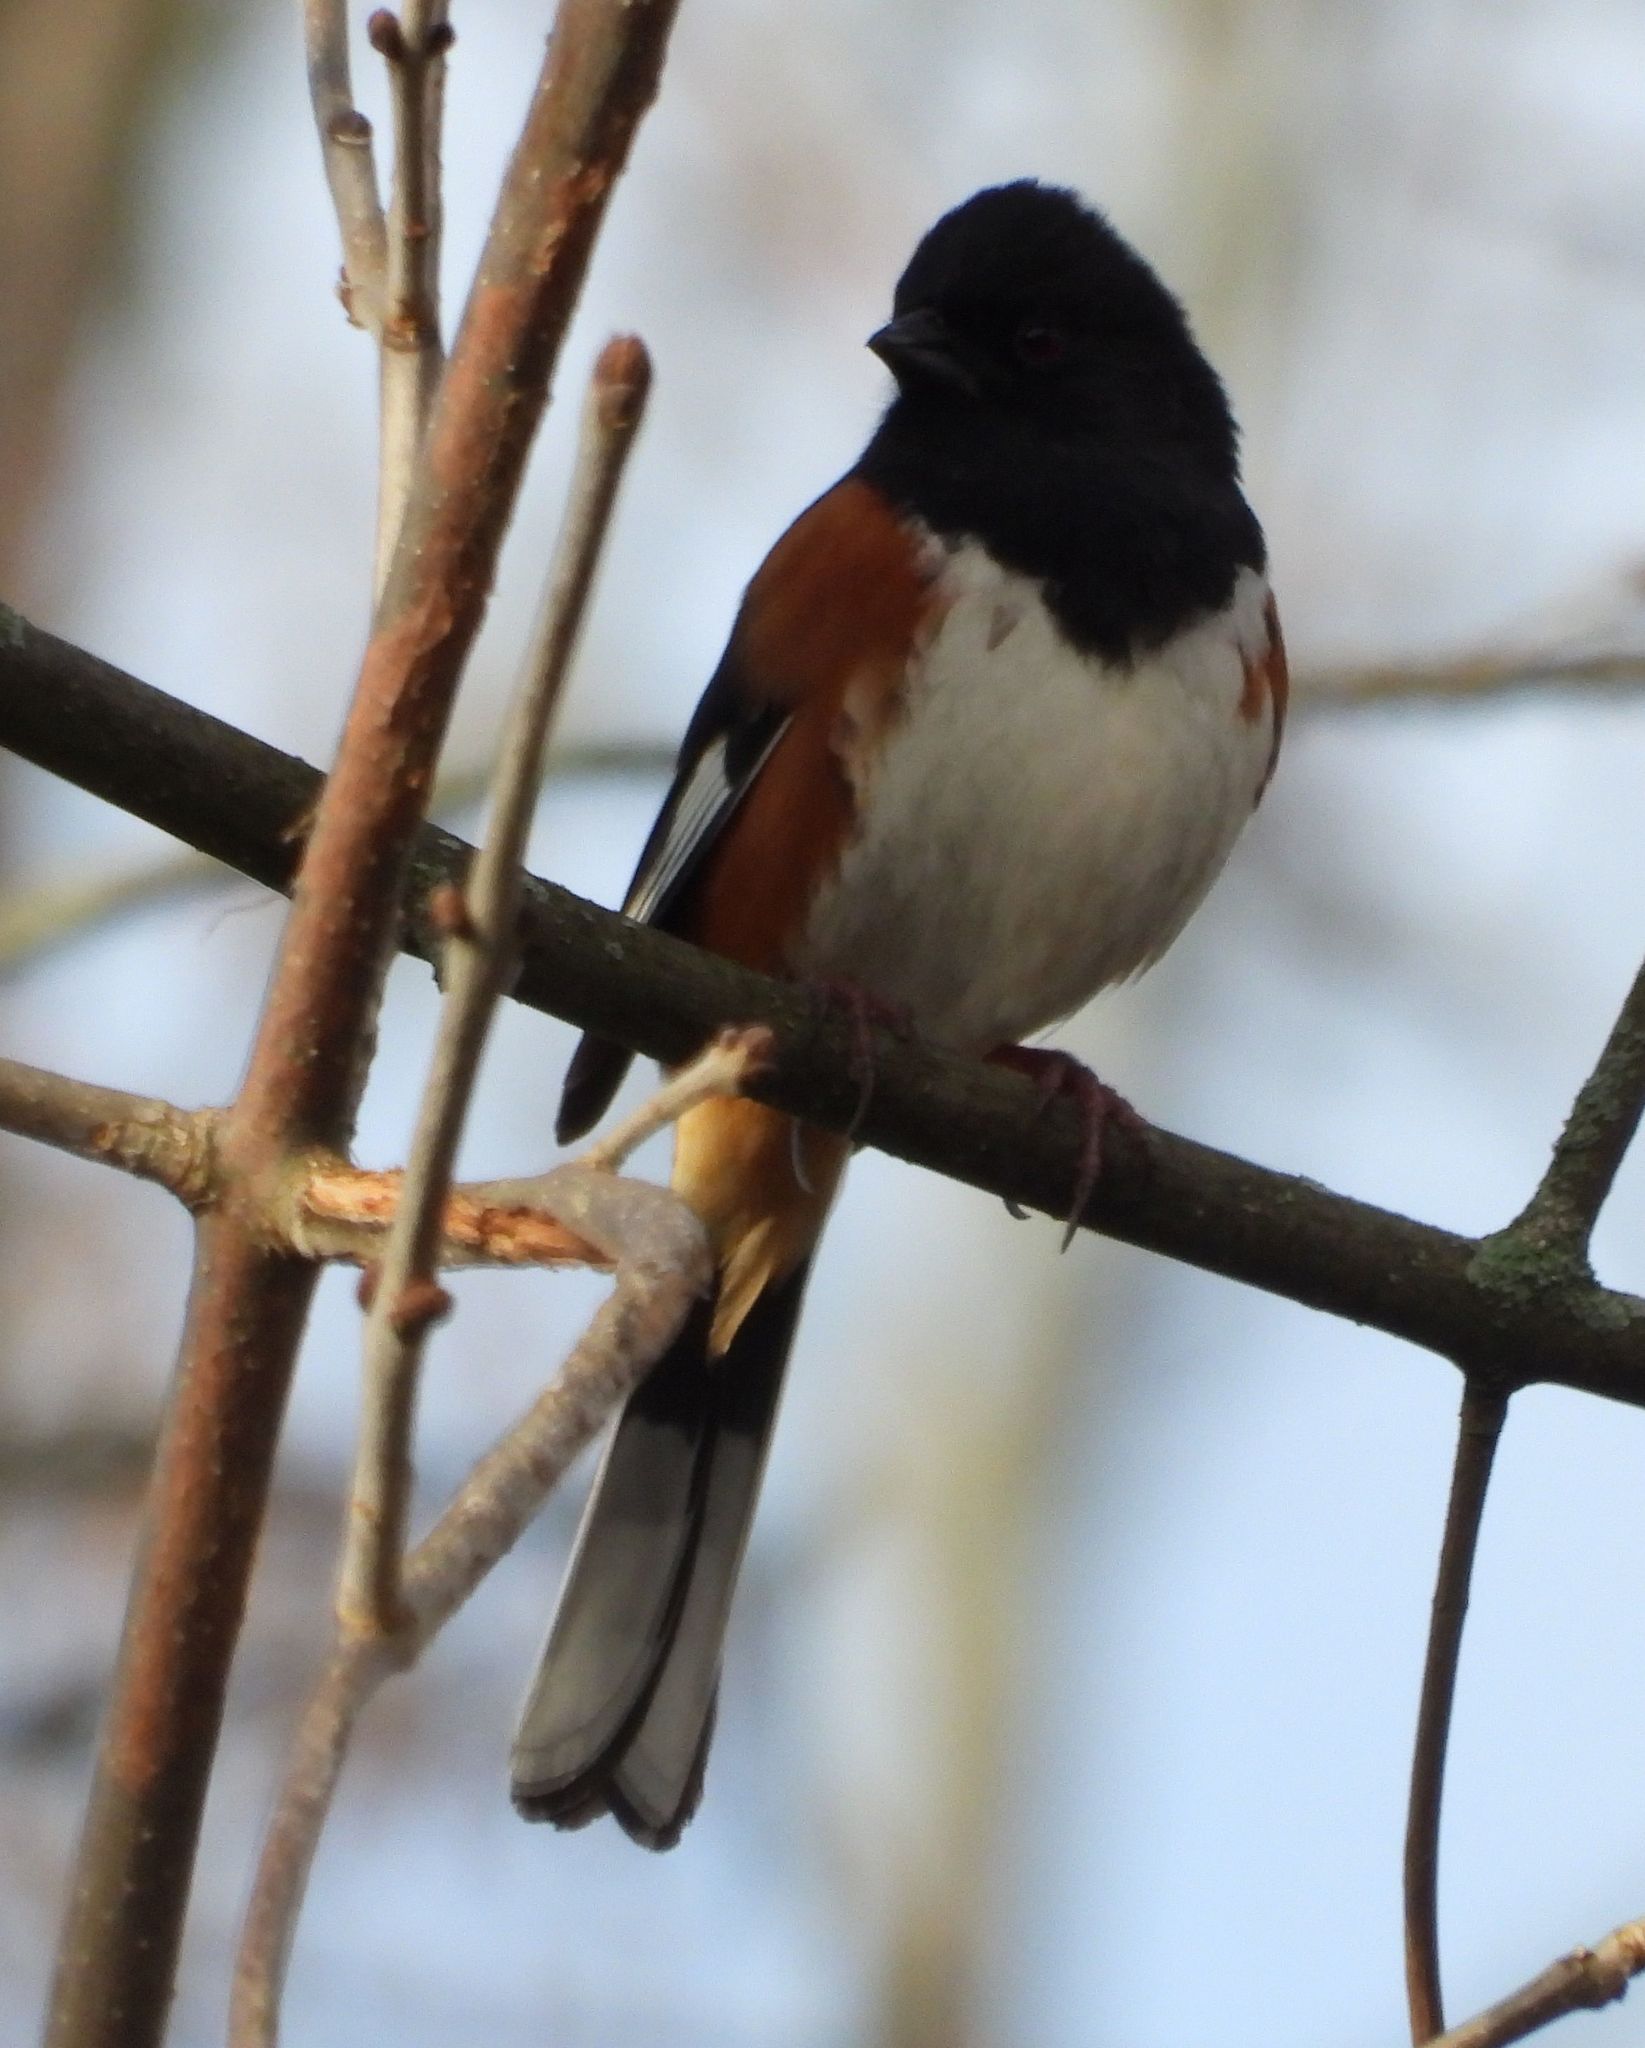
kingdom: Animalia
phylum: Chordata
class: Aves
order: Passeriformes
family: Passerellidae
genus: Pipilo
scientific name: Pipilo erythrophthalmus
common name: Eastern towhee
